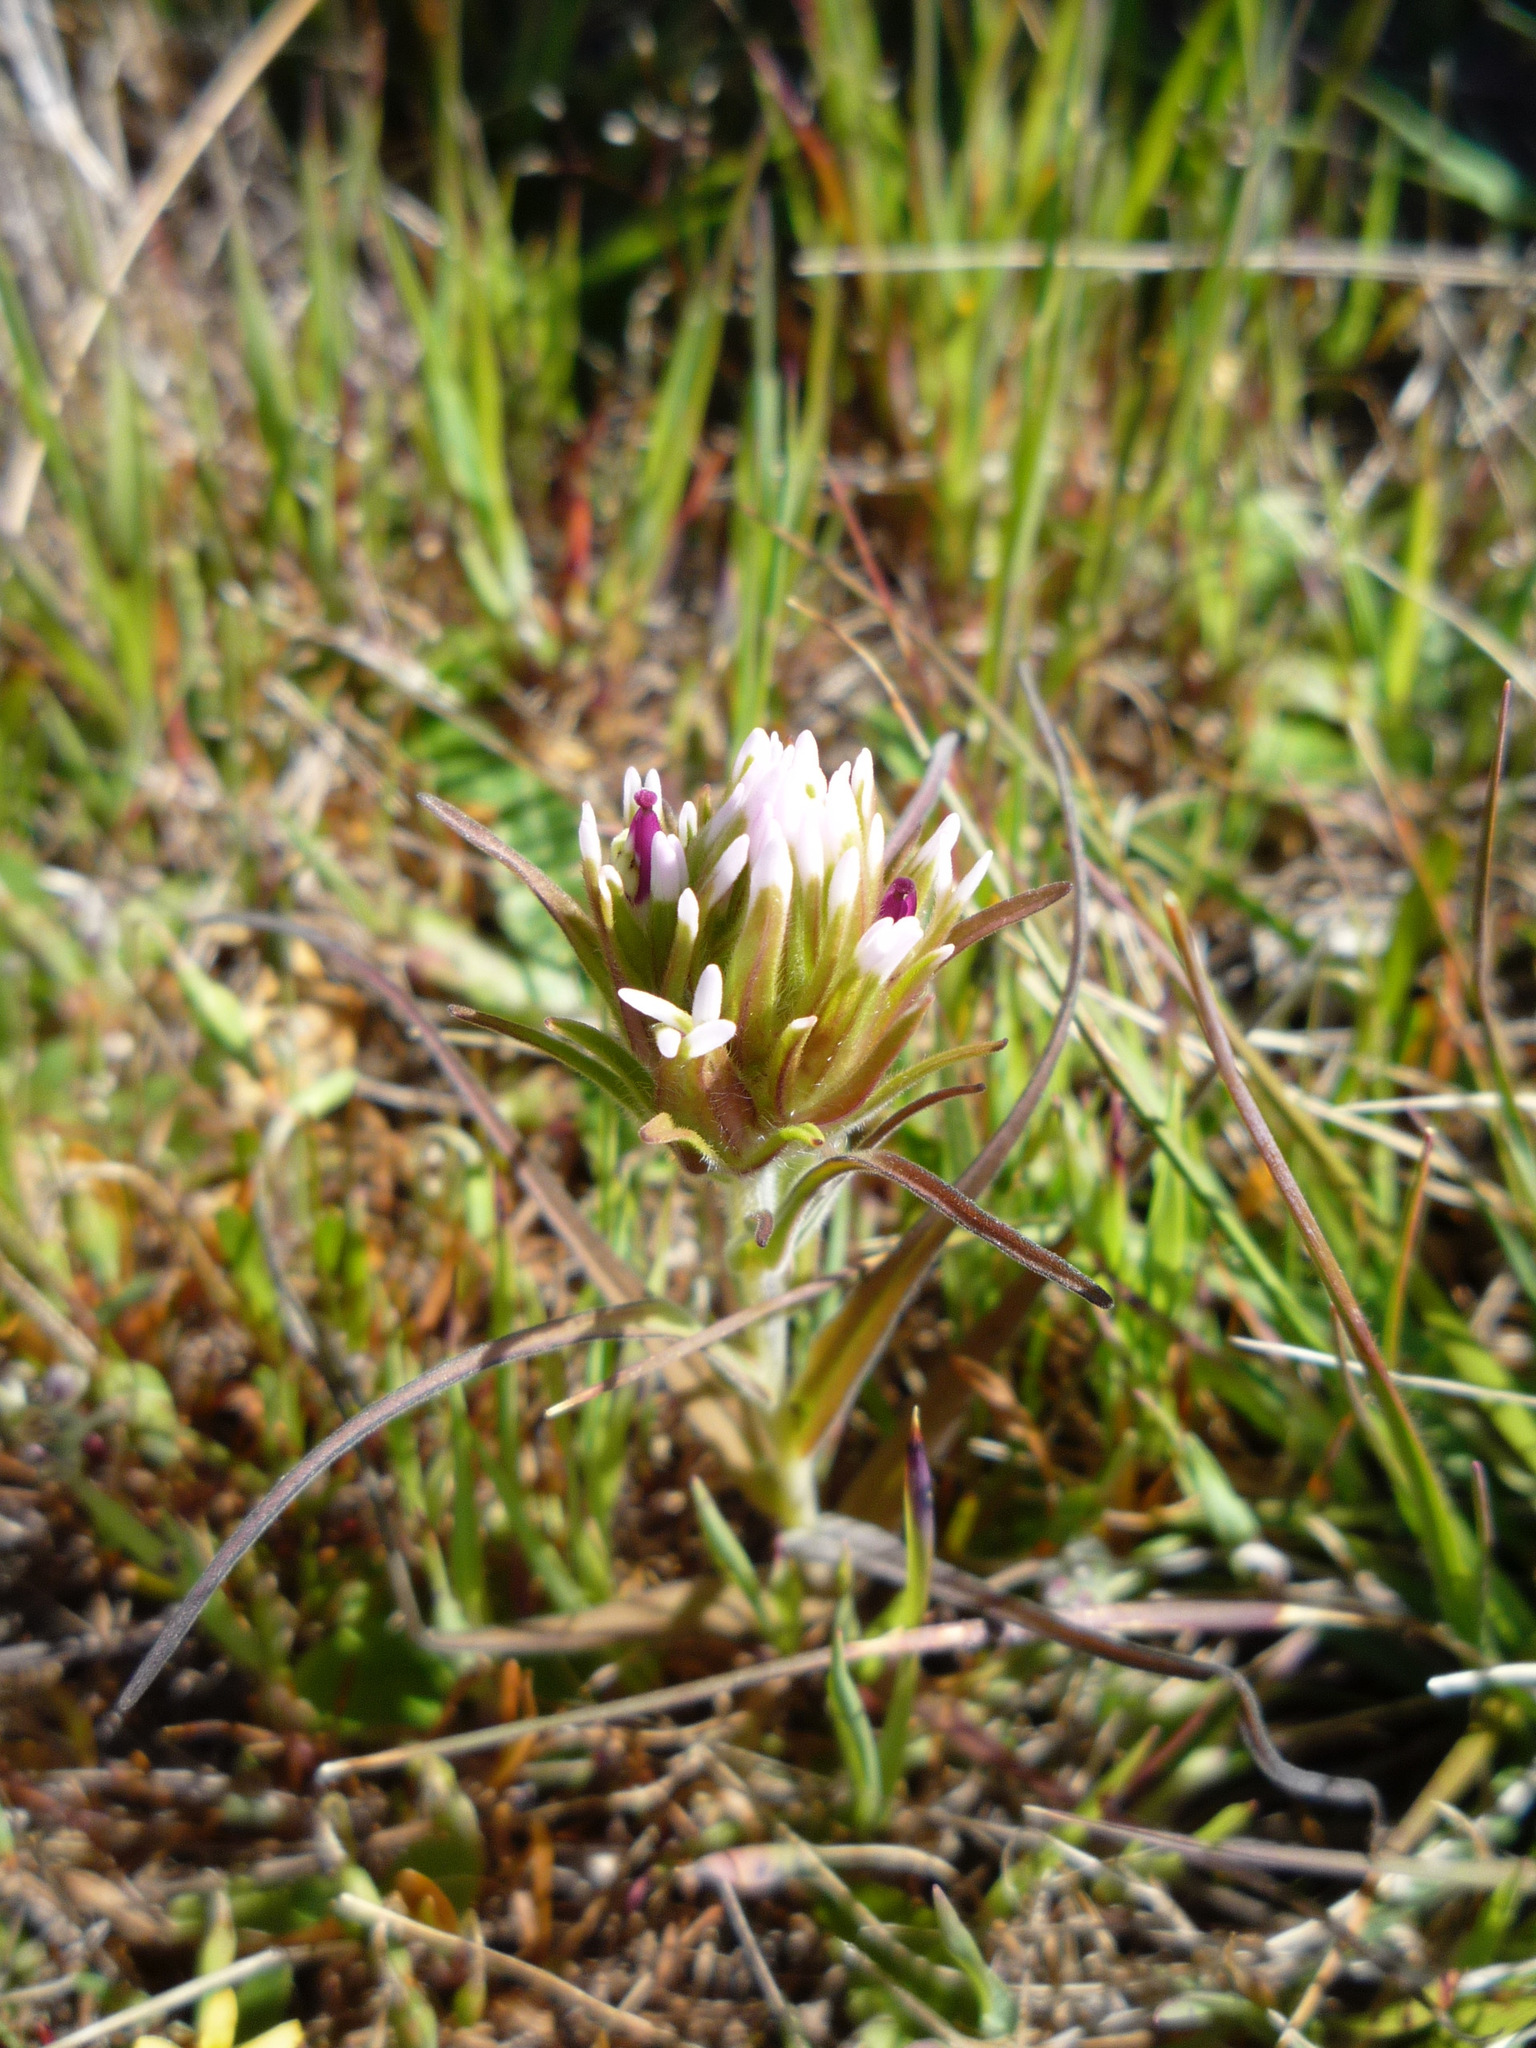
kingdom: Plantae
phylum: Tracheophyta
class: Magnoliopsida
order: Lamiales
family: Orobanchaceae
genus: Castilleja
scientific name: Castilleja densiflora
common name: Dense-flower indian paintbrush
